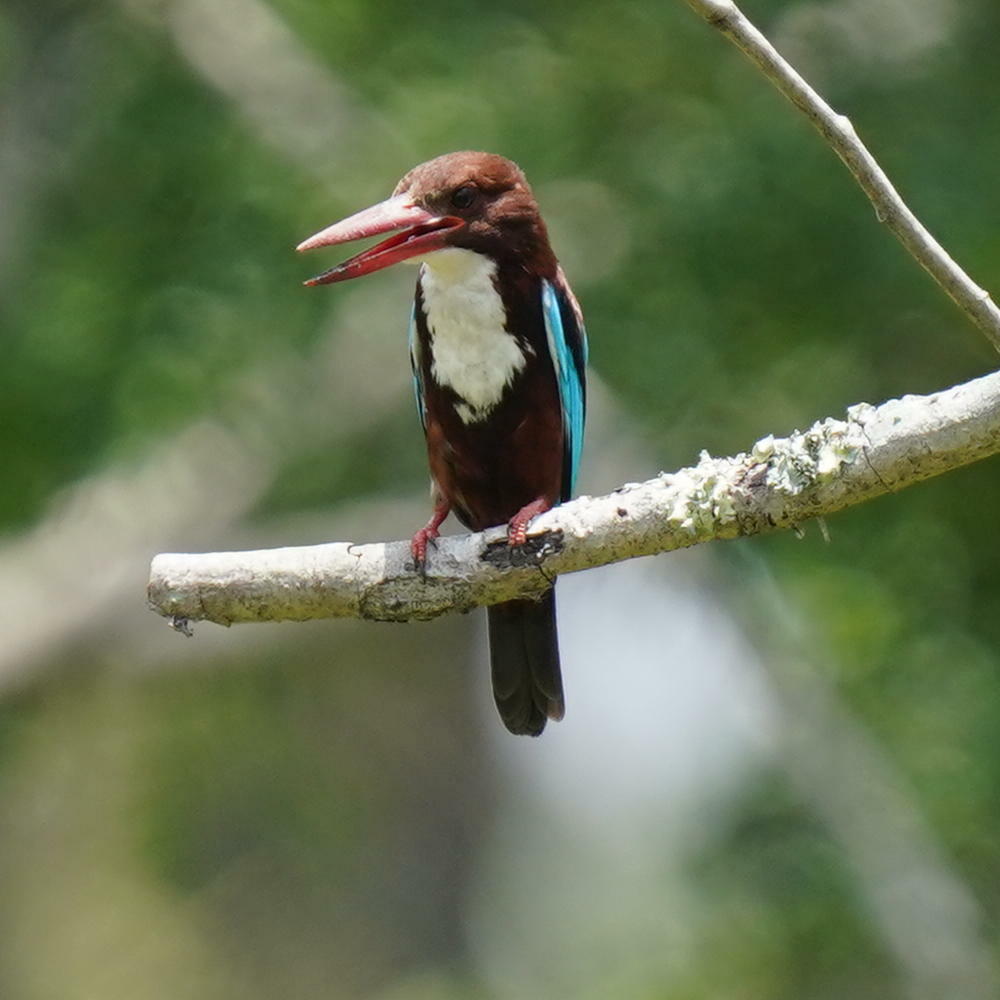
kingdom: Animalia
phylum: Chordata
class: Aves
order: Coraciiformes
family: Alcedinidae
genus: Halcyon
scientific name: Halcyon smyrnensis
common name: White-throated kingfisher
